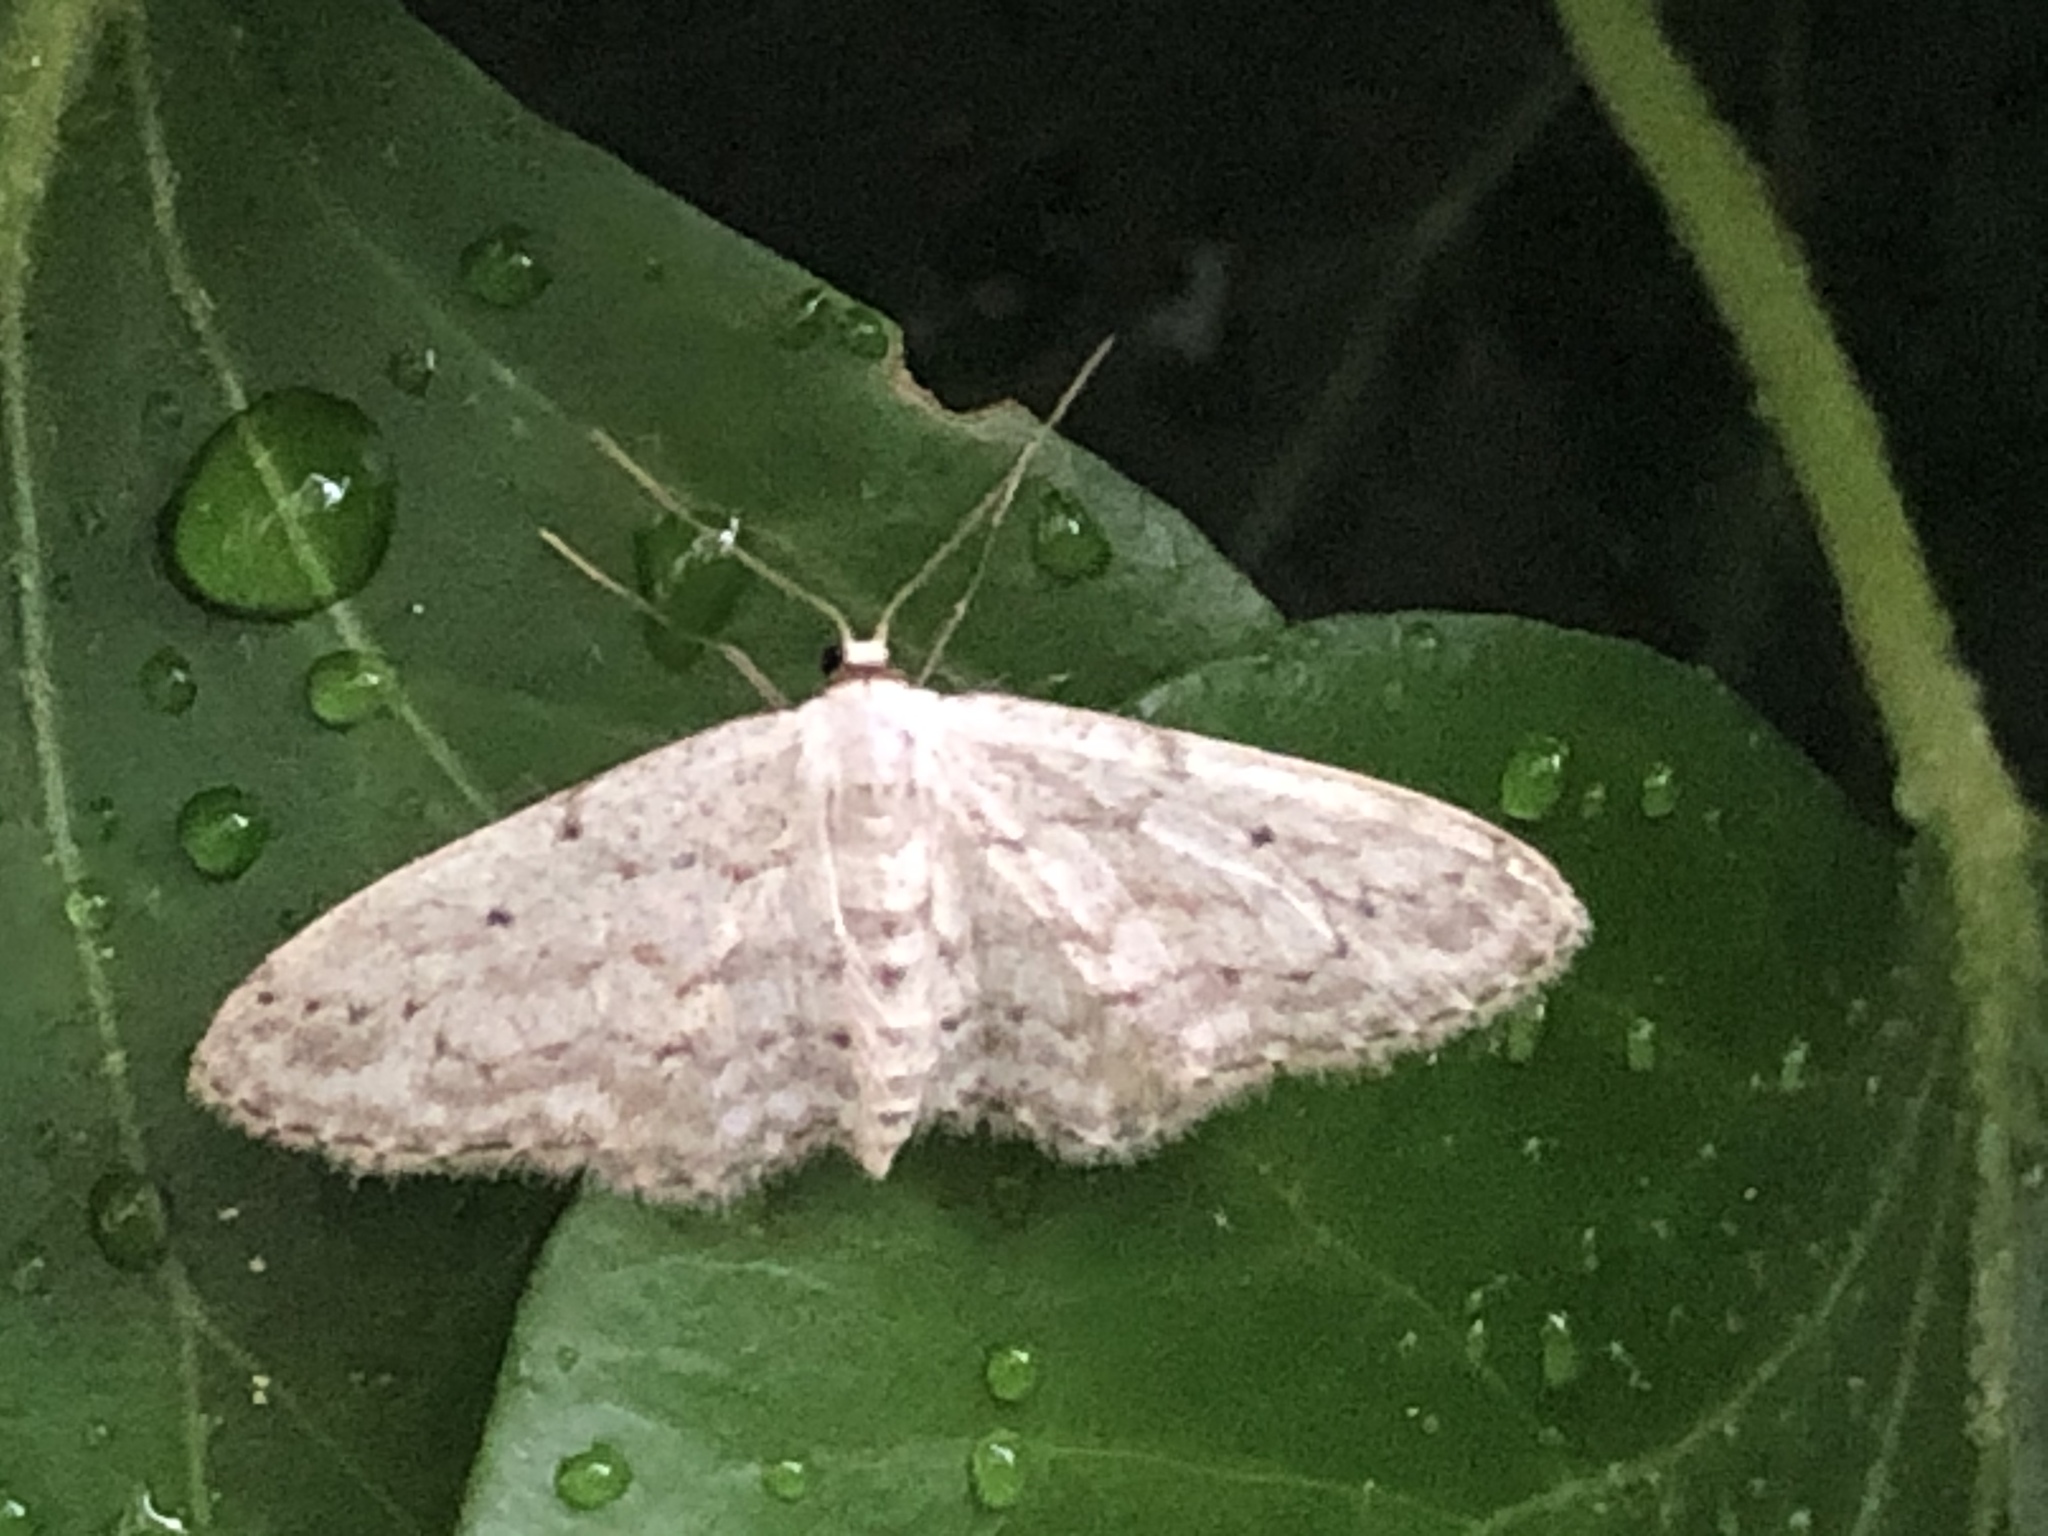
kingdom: Animalia
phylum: Arthropoda
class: Insecta
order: Lepidoptera
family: Geometridae
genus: Idaea
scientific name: Idaea seriata
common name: Small dusty wave
